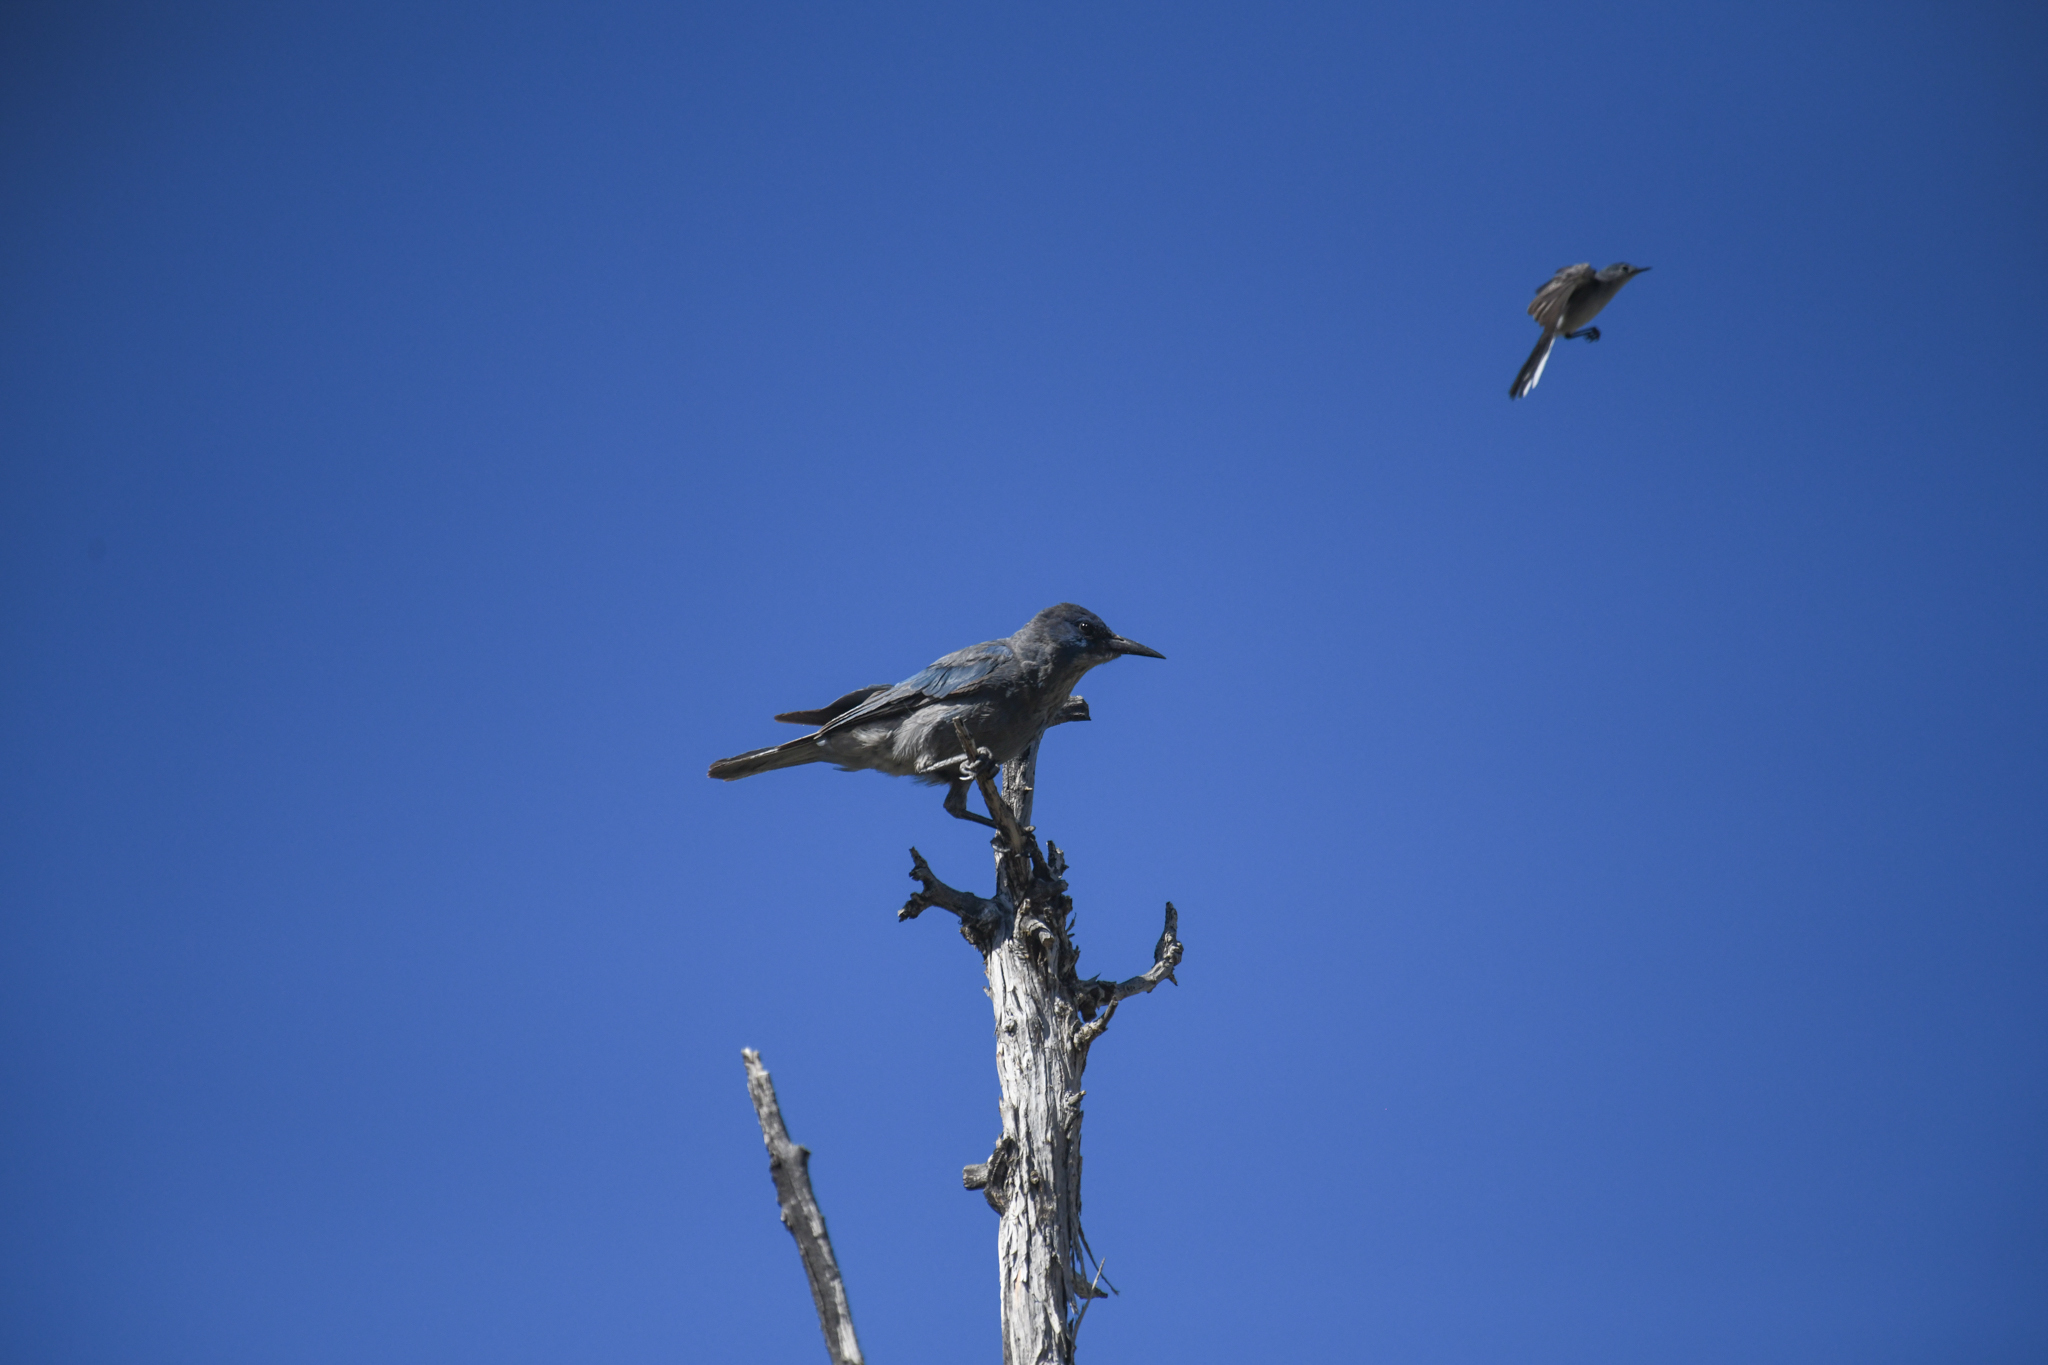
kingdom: Animalia
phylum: Chordata
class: Aves
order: Passeriformes
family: Corvidae
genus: Gymnorhinus
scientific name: Gymnorhinus cyanocephalus
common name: Pinyon jay
